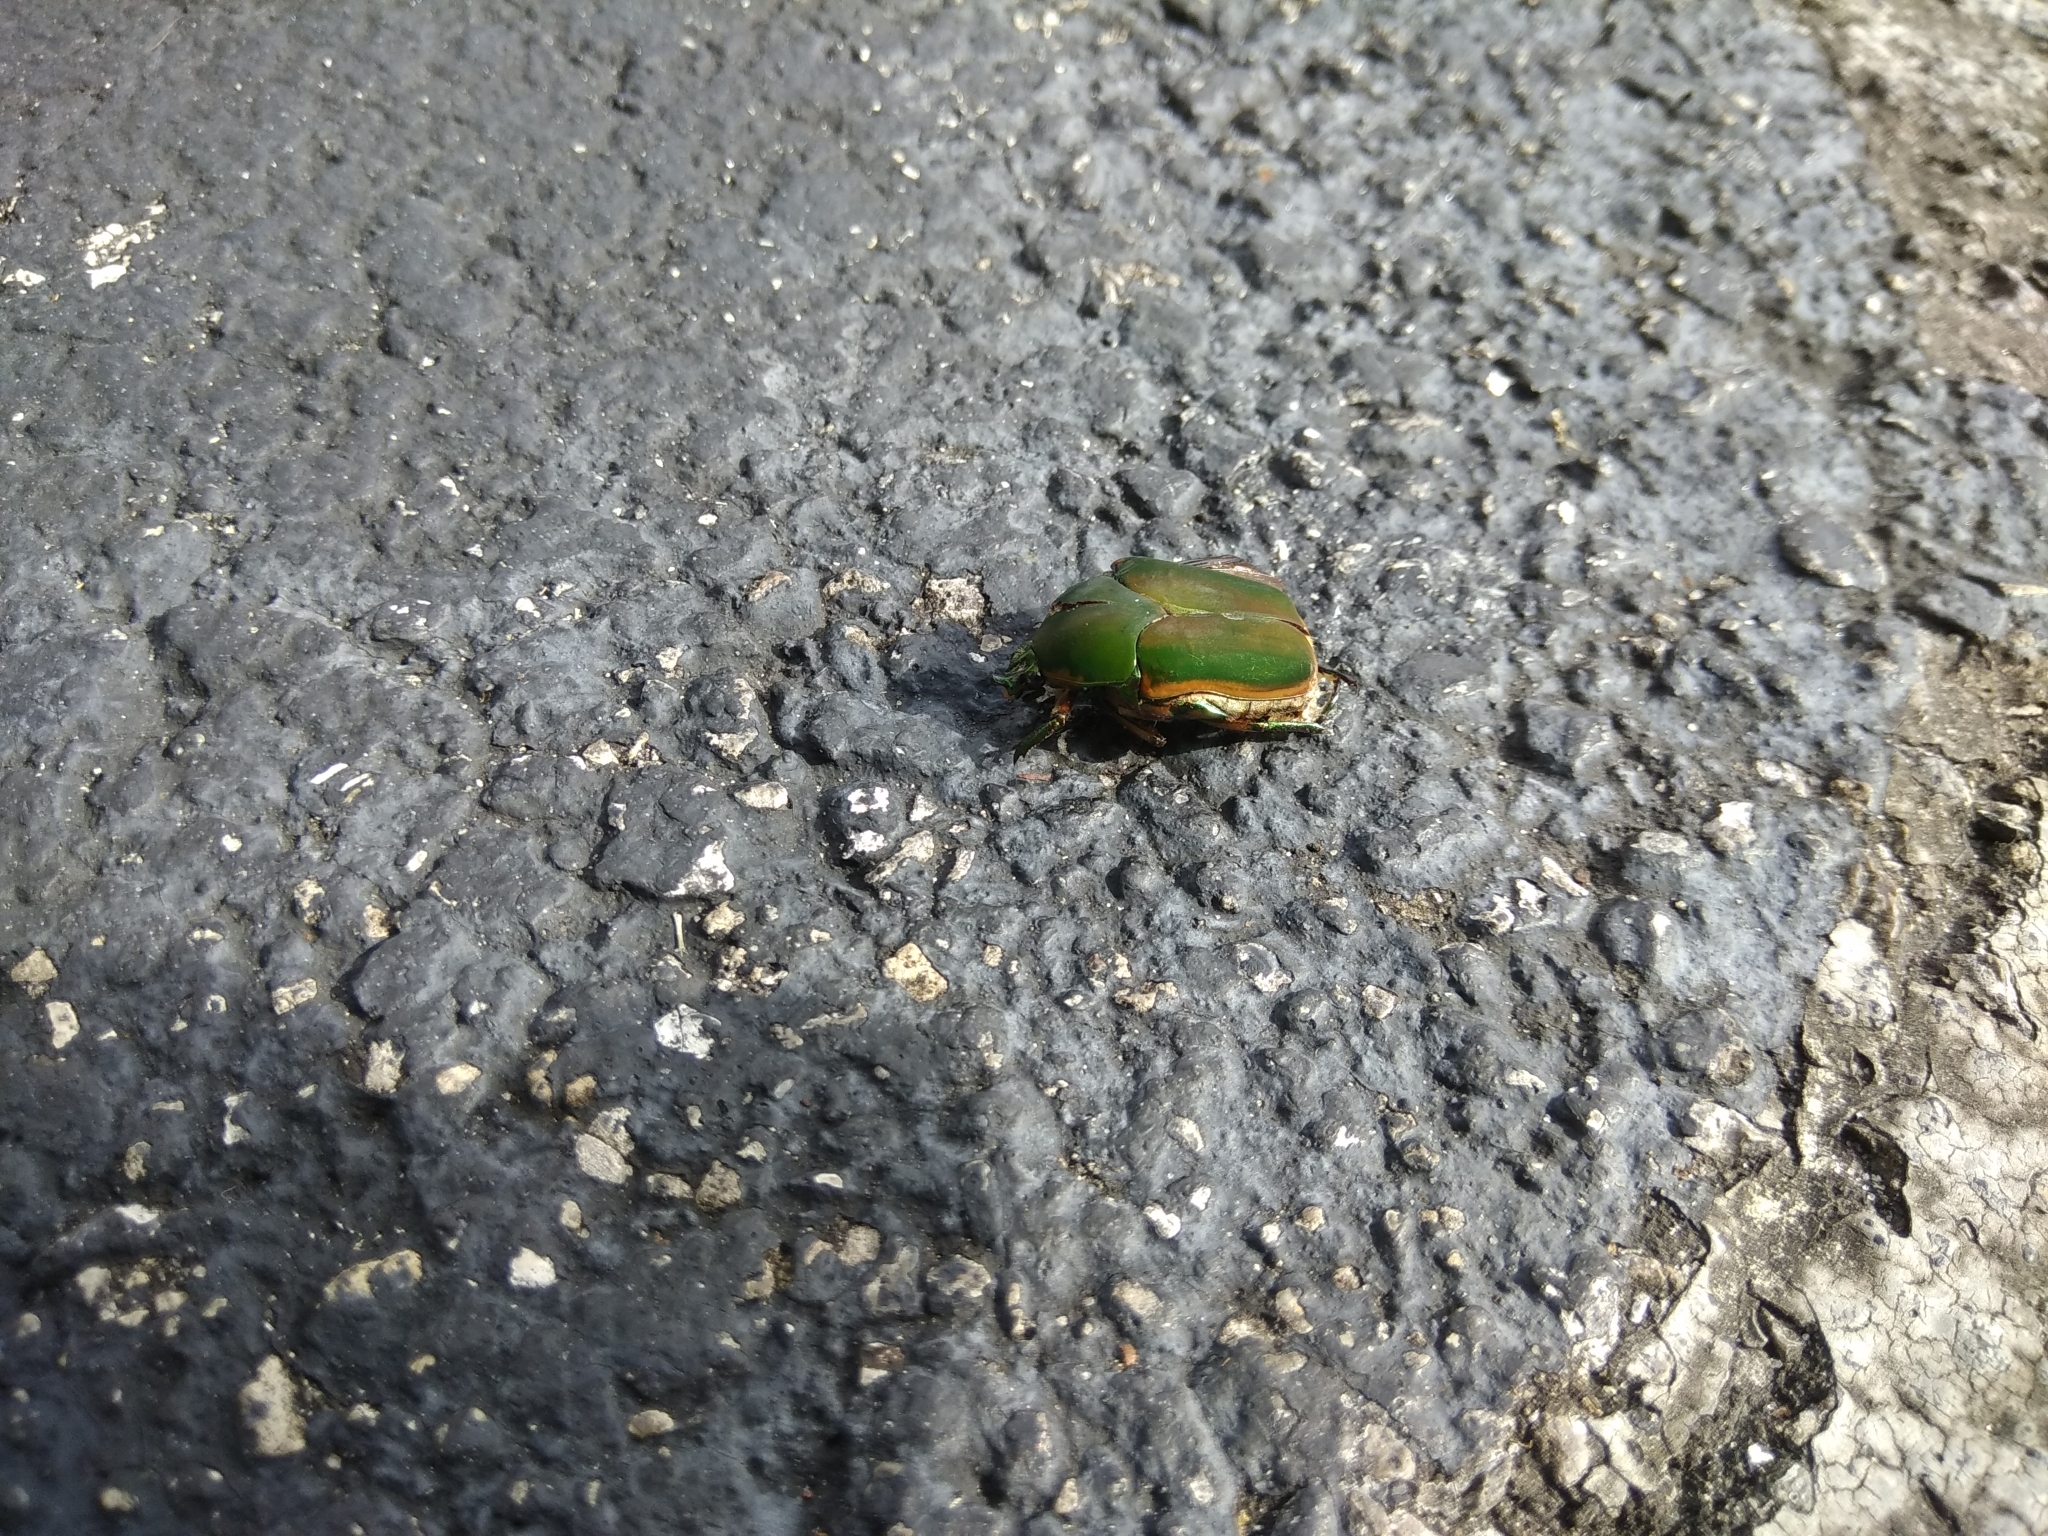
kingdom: Animalia
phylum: Arthropoda
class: Insecta
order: Coleoptera
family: Scarabaeidae
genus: Cotinis
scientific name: Cotinis nitida
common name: Common green june beetle
